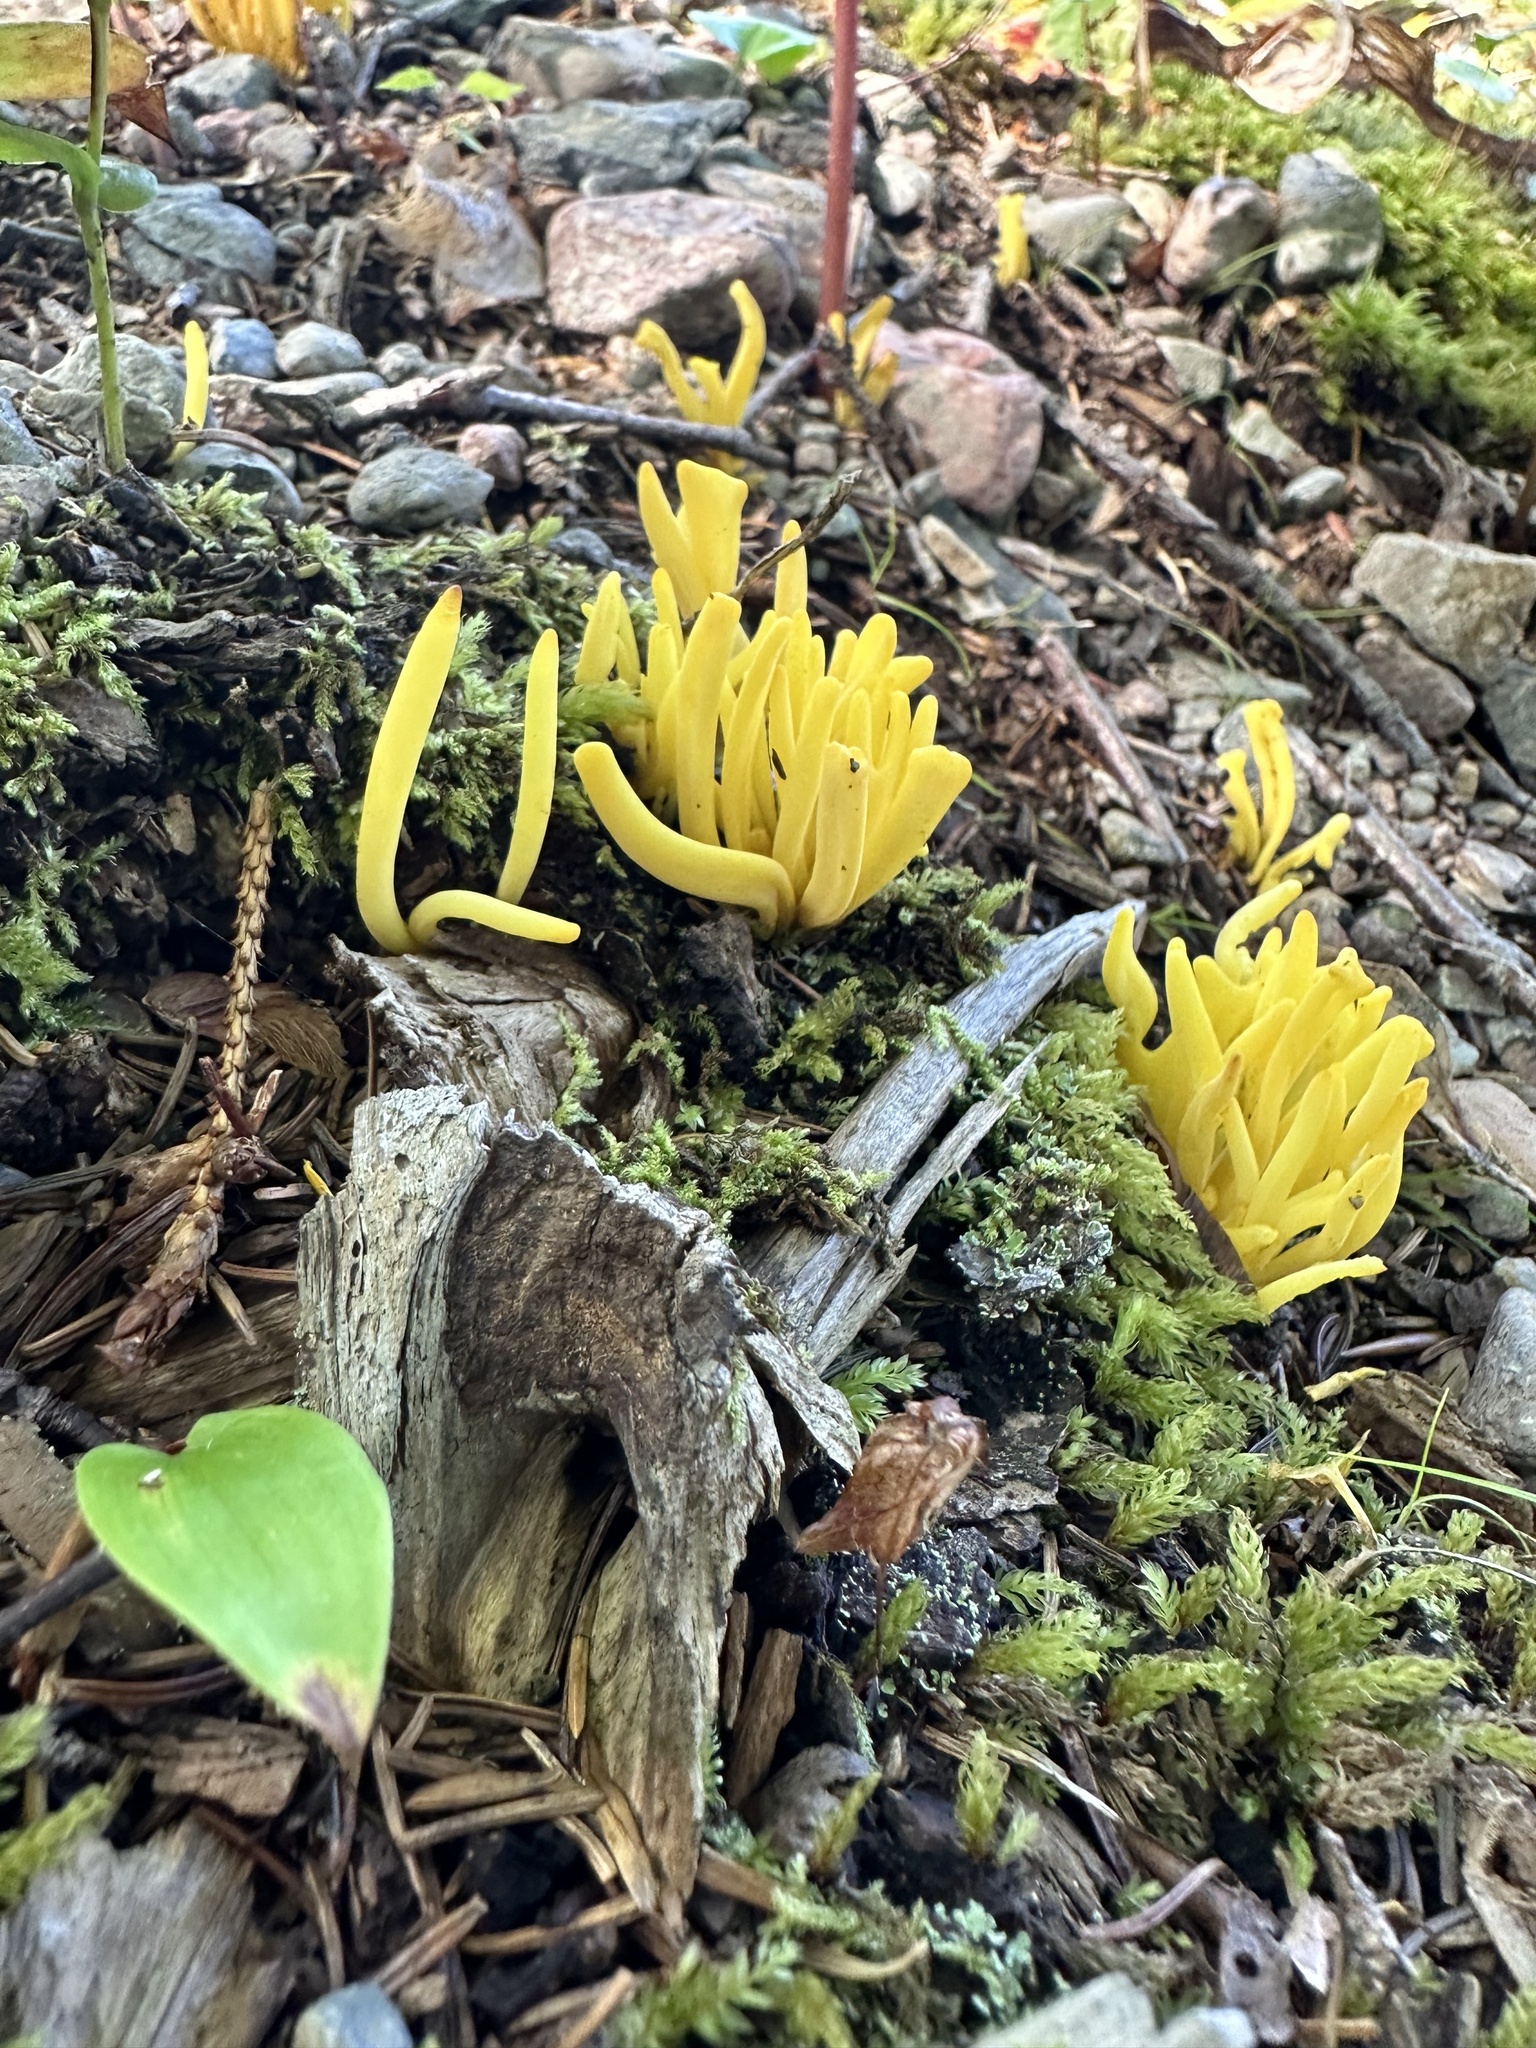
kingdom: Fungi
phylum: Basidiomycota
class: Agaricomycetes
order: Agaricales
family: Clavariaceae
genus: Clavulinopsis
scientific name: Clavulinopsis fusiformis
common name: Golden spindles
